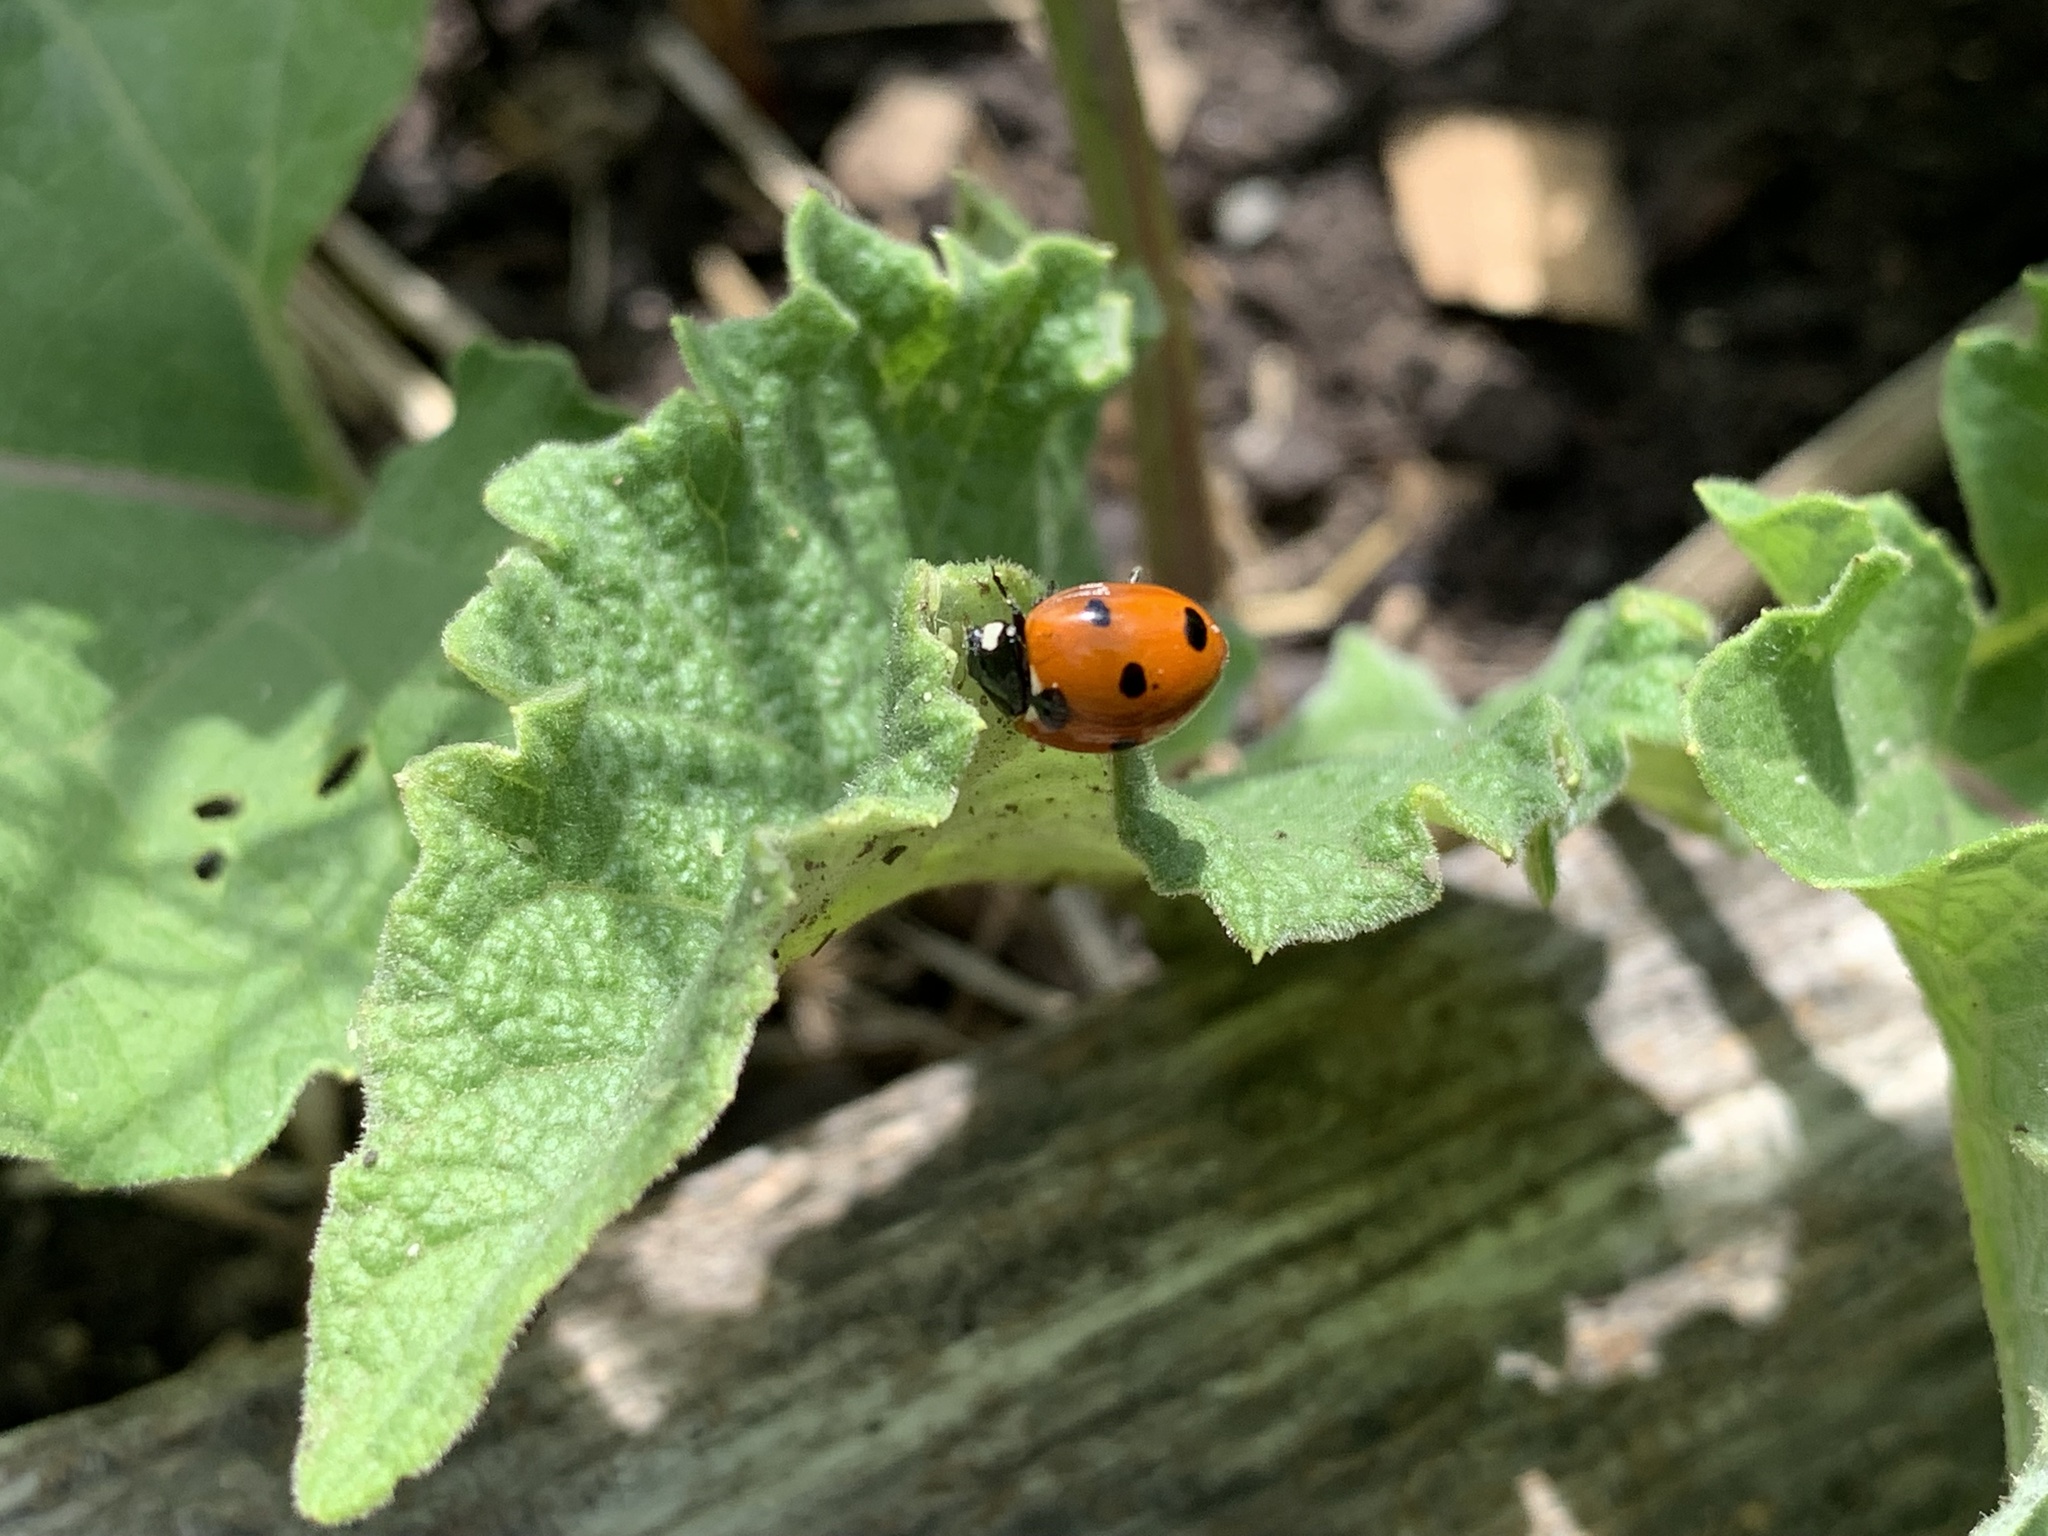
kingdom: Animalia
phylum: Arthropoda
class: Insecta
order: Coleoptera
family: Coccinellidae
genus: Coccinella
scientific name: Coccinella septempunctata
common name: Sevenspotted lady beetle
